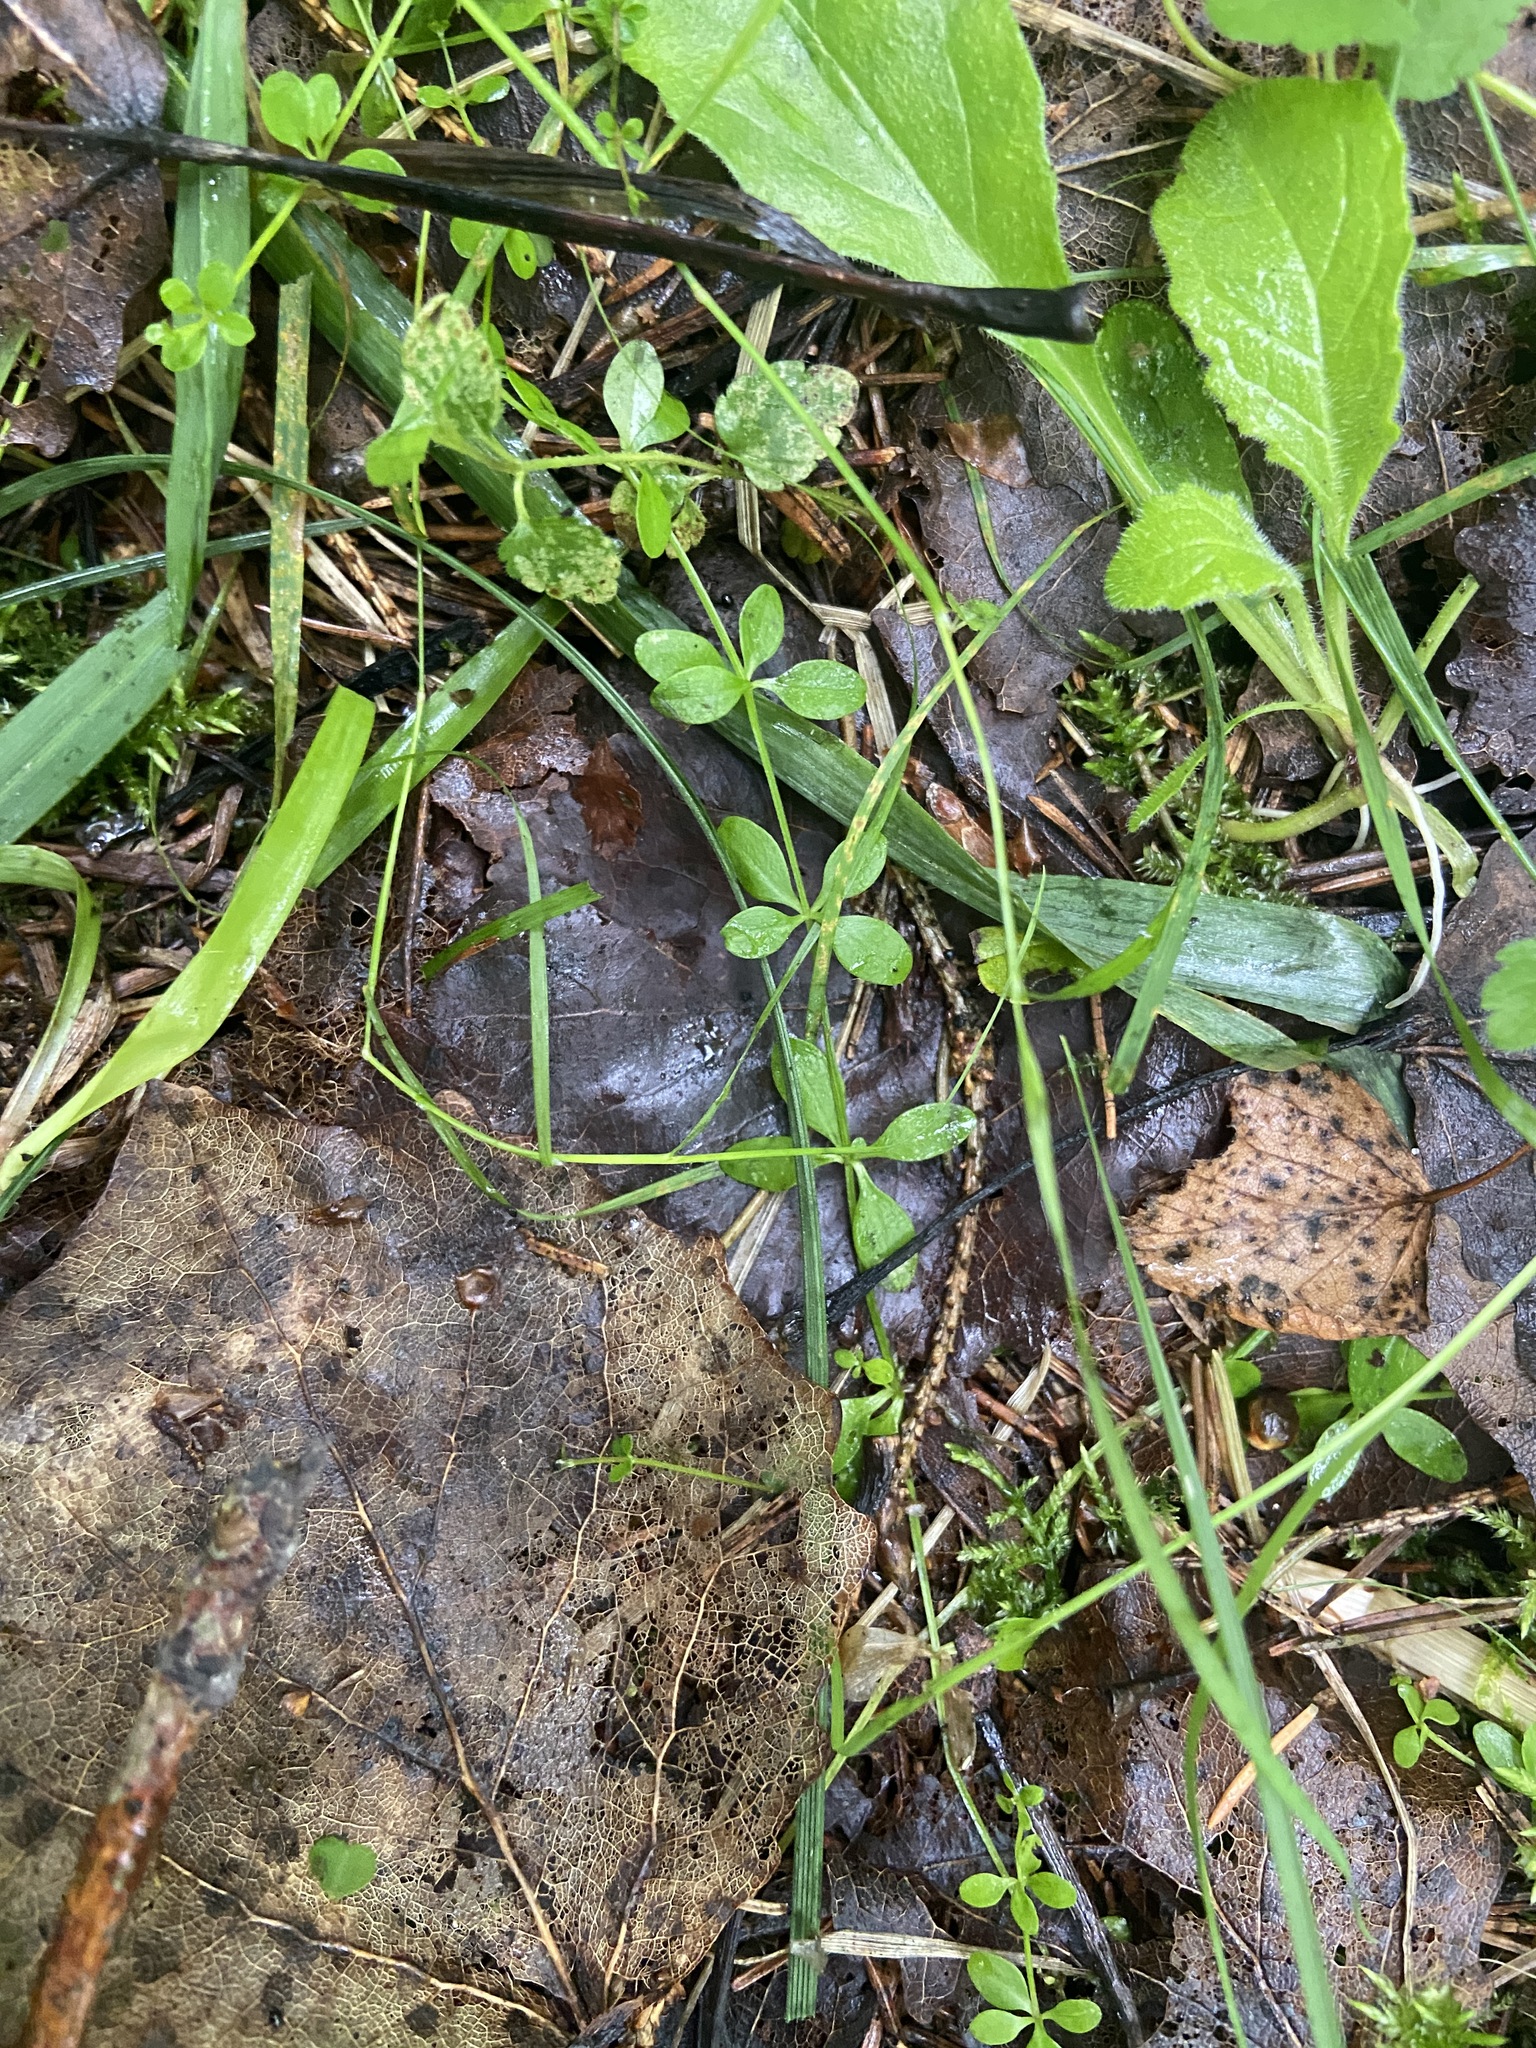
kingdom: Plantae
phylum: Tracheophyta
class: Magnoliopsida
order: Gentianales
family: Rubiaceae
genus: Galium
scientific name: Galium palustre
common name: Common marsh-bedstraw
